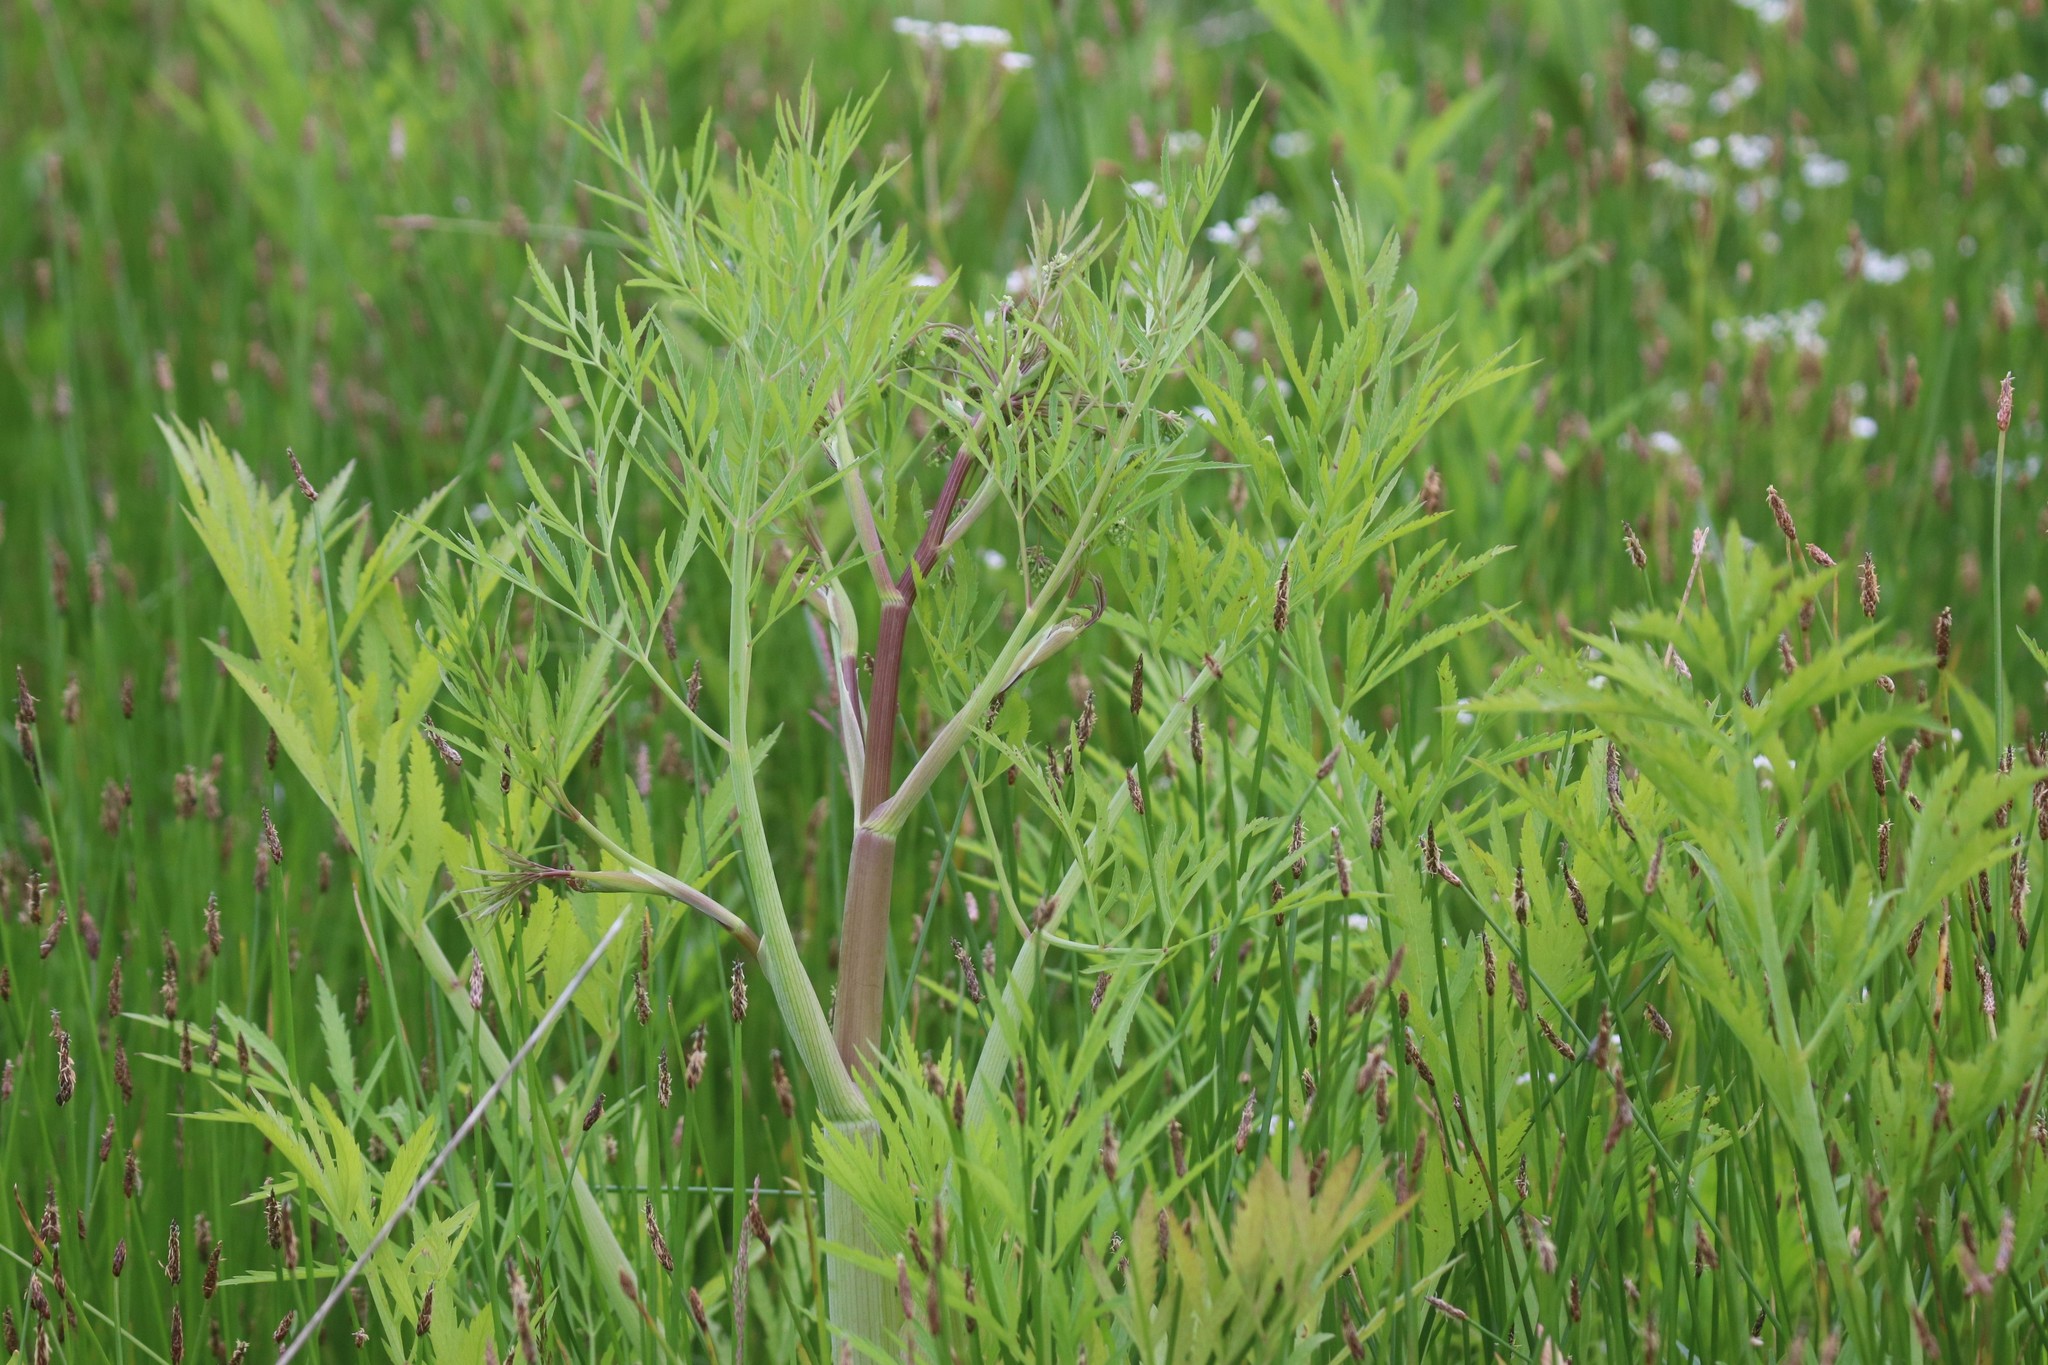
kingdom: Plantae
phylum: Tracheophyta
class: Magnoliopsida
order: Apiales
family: Apiaceae
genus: Cicuta
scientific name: Cicuta virosa
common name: Cowbane
